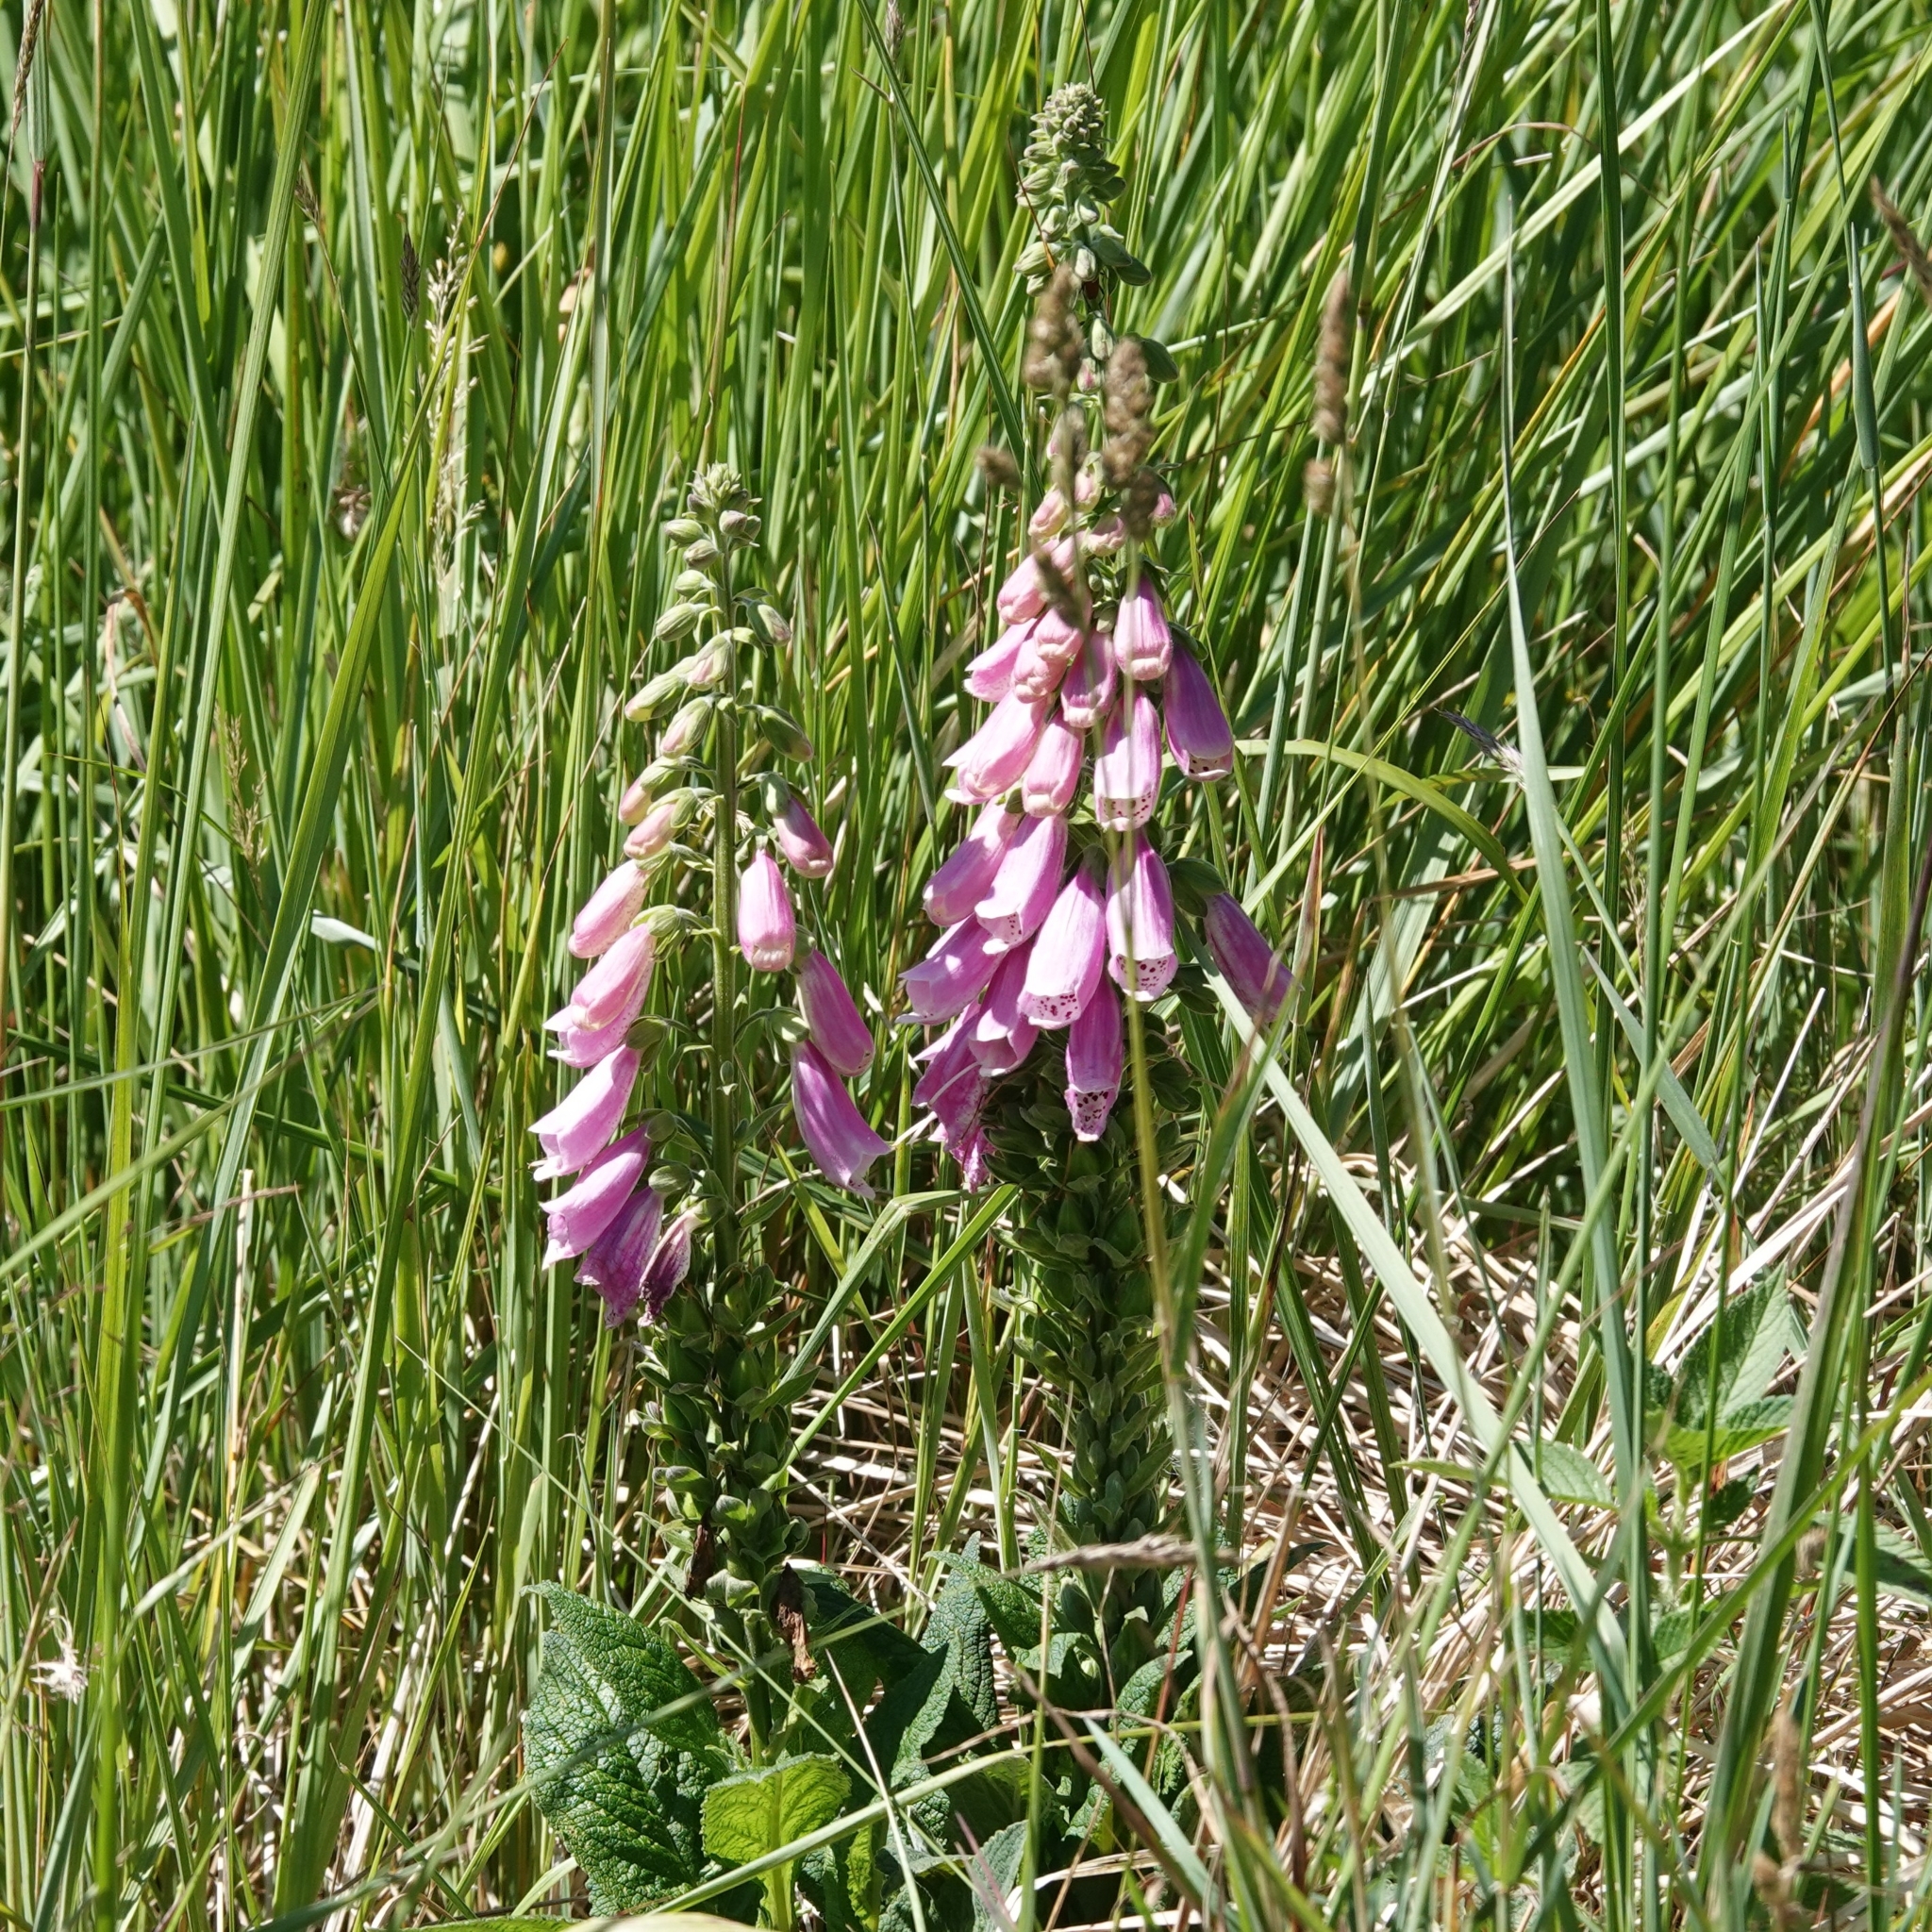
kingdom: Plantae
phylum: Tracheophyta
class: Magnoliopsida
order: Lamiales
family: Plantaginaceae
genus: Digitalis
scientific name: Digitalis purpurea
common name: Foxglove
